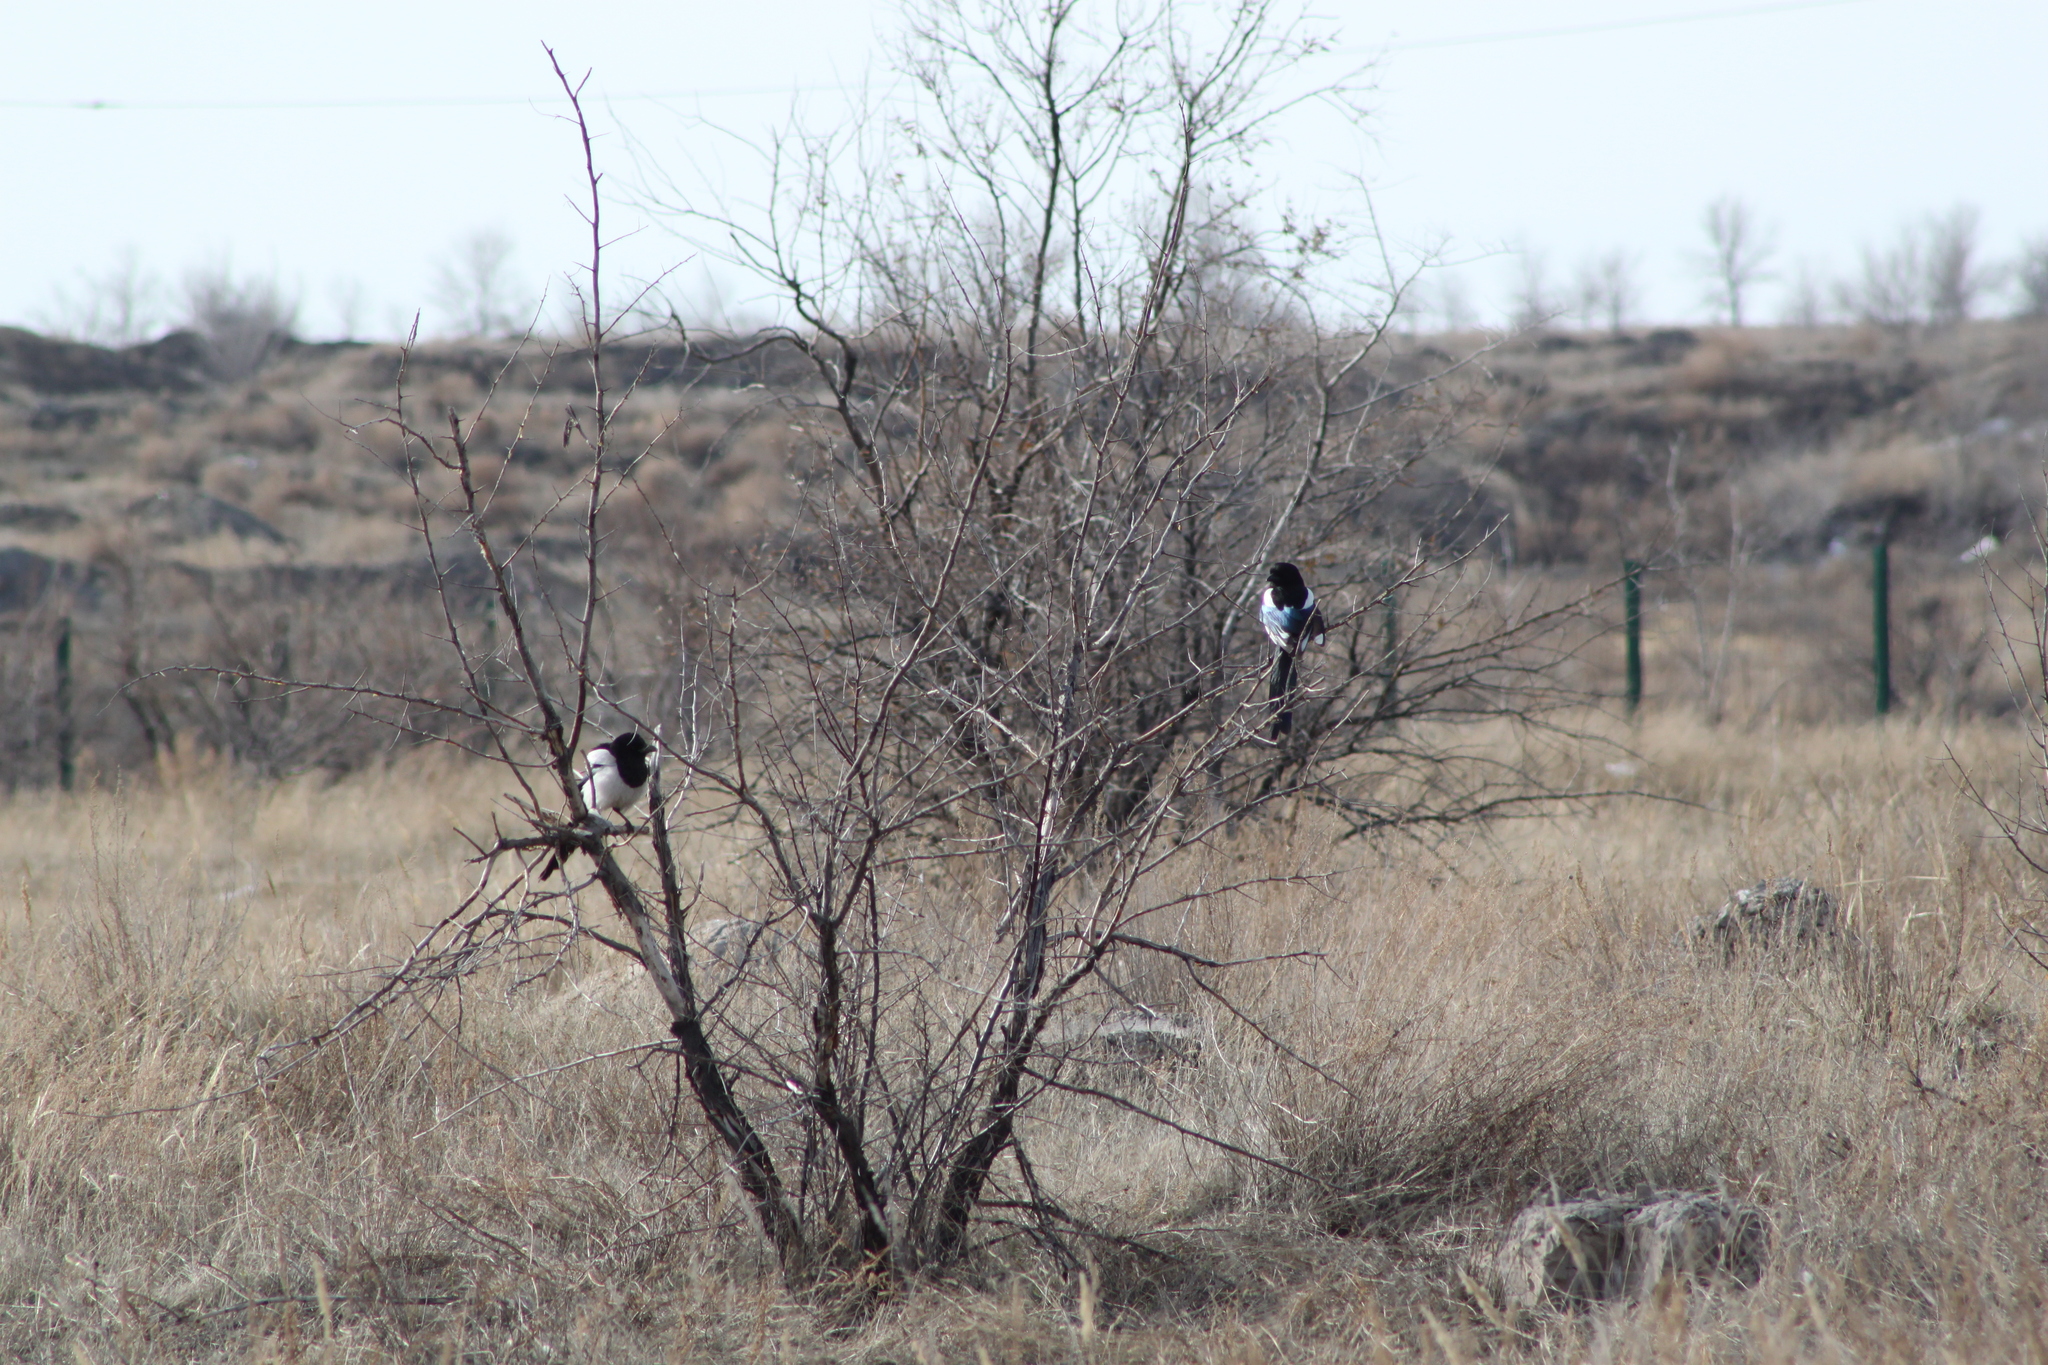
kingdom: Animalia
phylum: Chordata
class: Aves
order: Passeriformes
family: Corvidae
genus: Pica
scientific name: Pica pica
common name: Eurasian magpie
